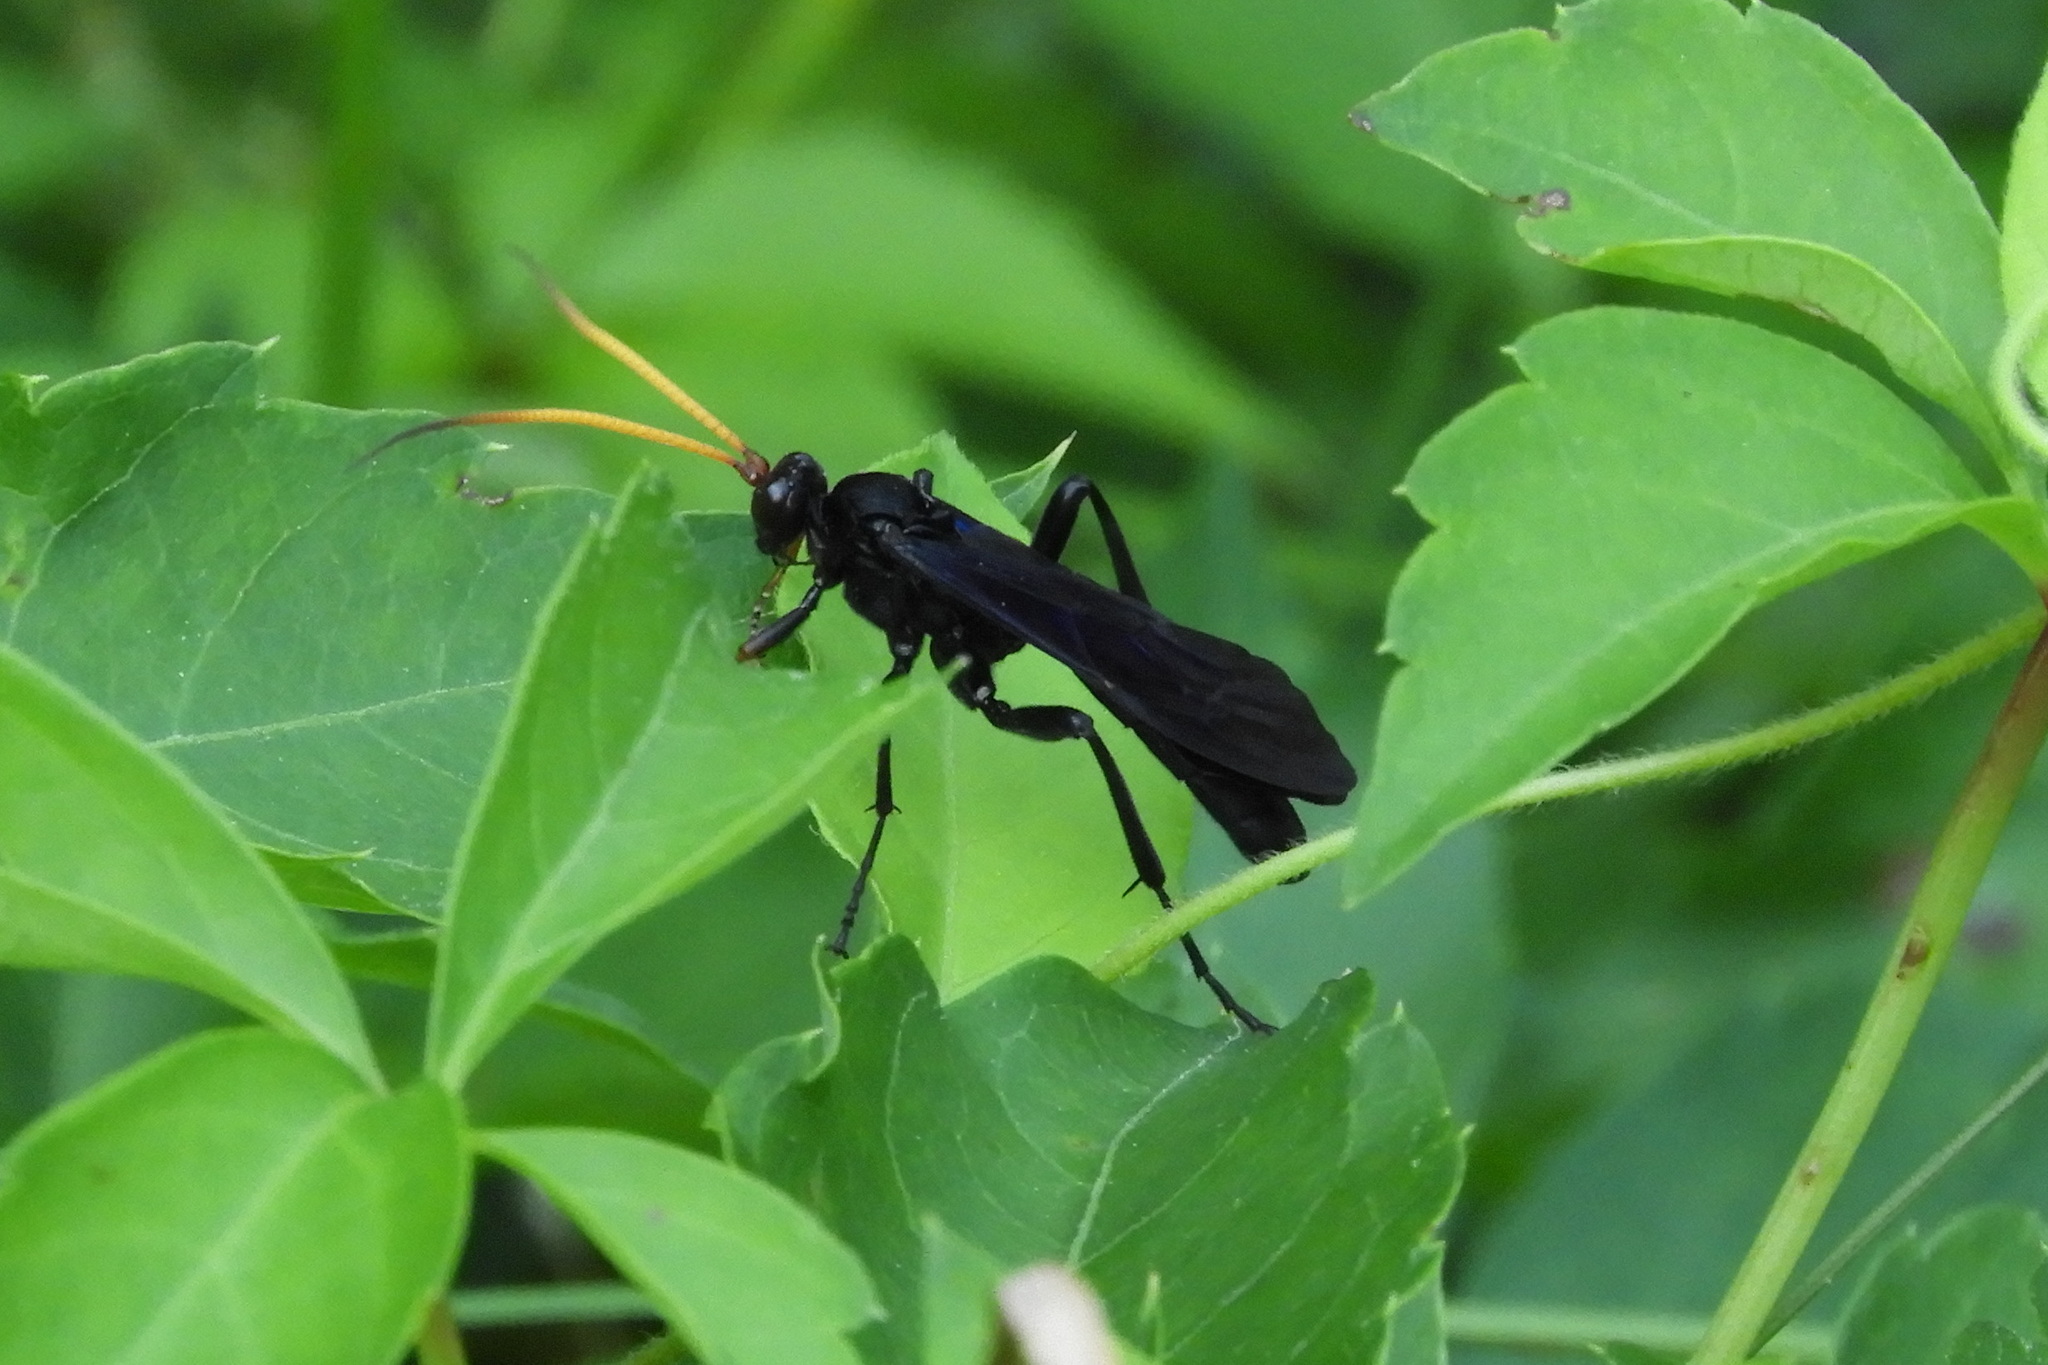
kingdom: Animalia
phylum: Arthropoda
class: Insecta
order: Hymenoptera
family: Ichneumonidae
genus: Gnamptopelta
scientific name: Gnamptopelta obsidianator
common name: Bent-shielded besieger wasp
